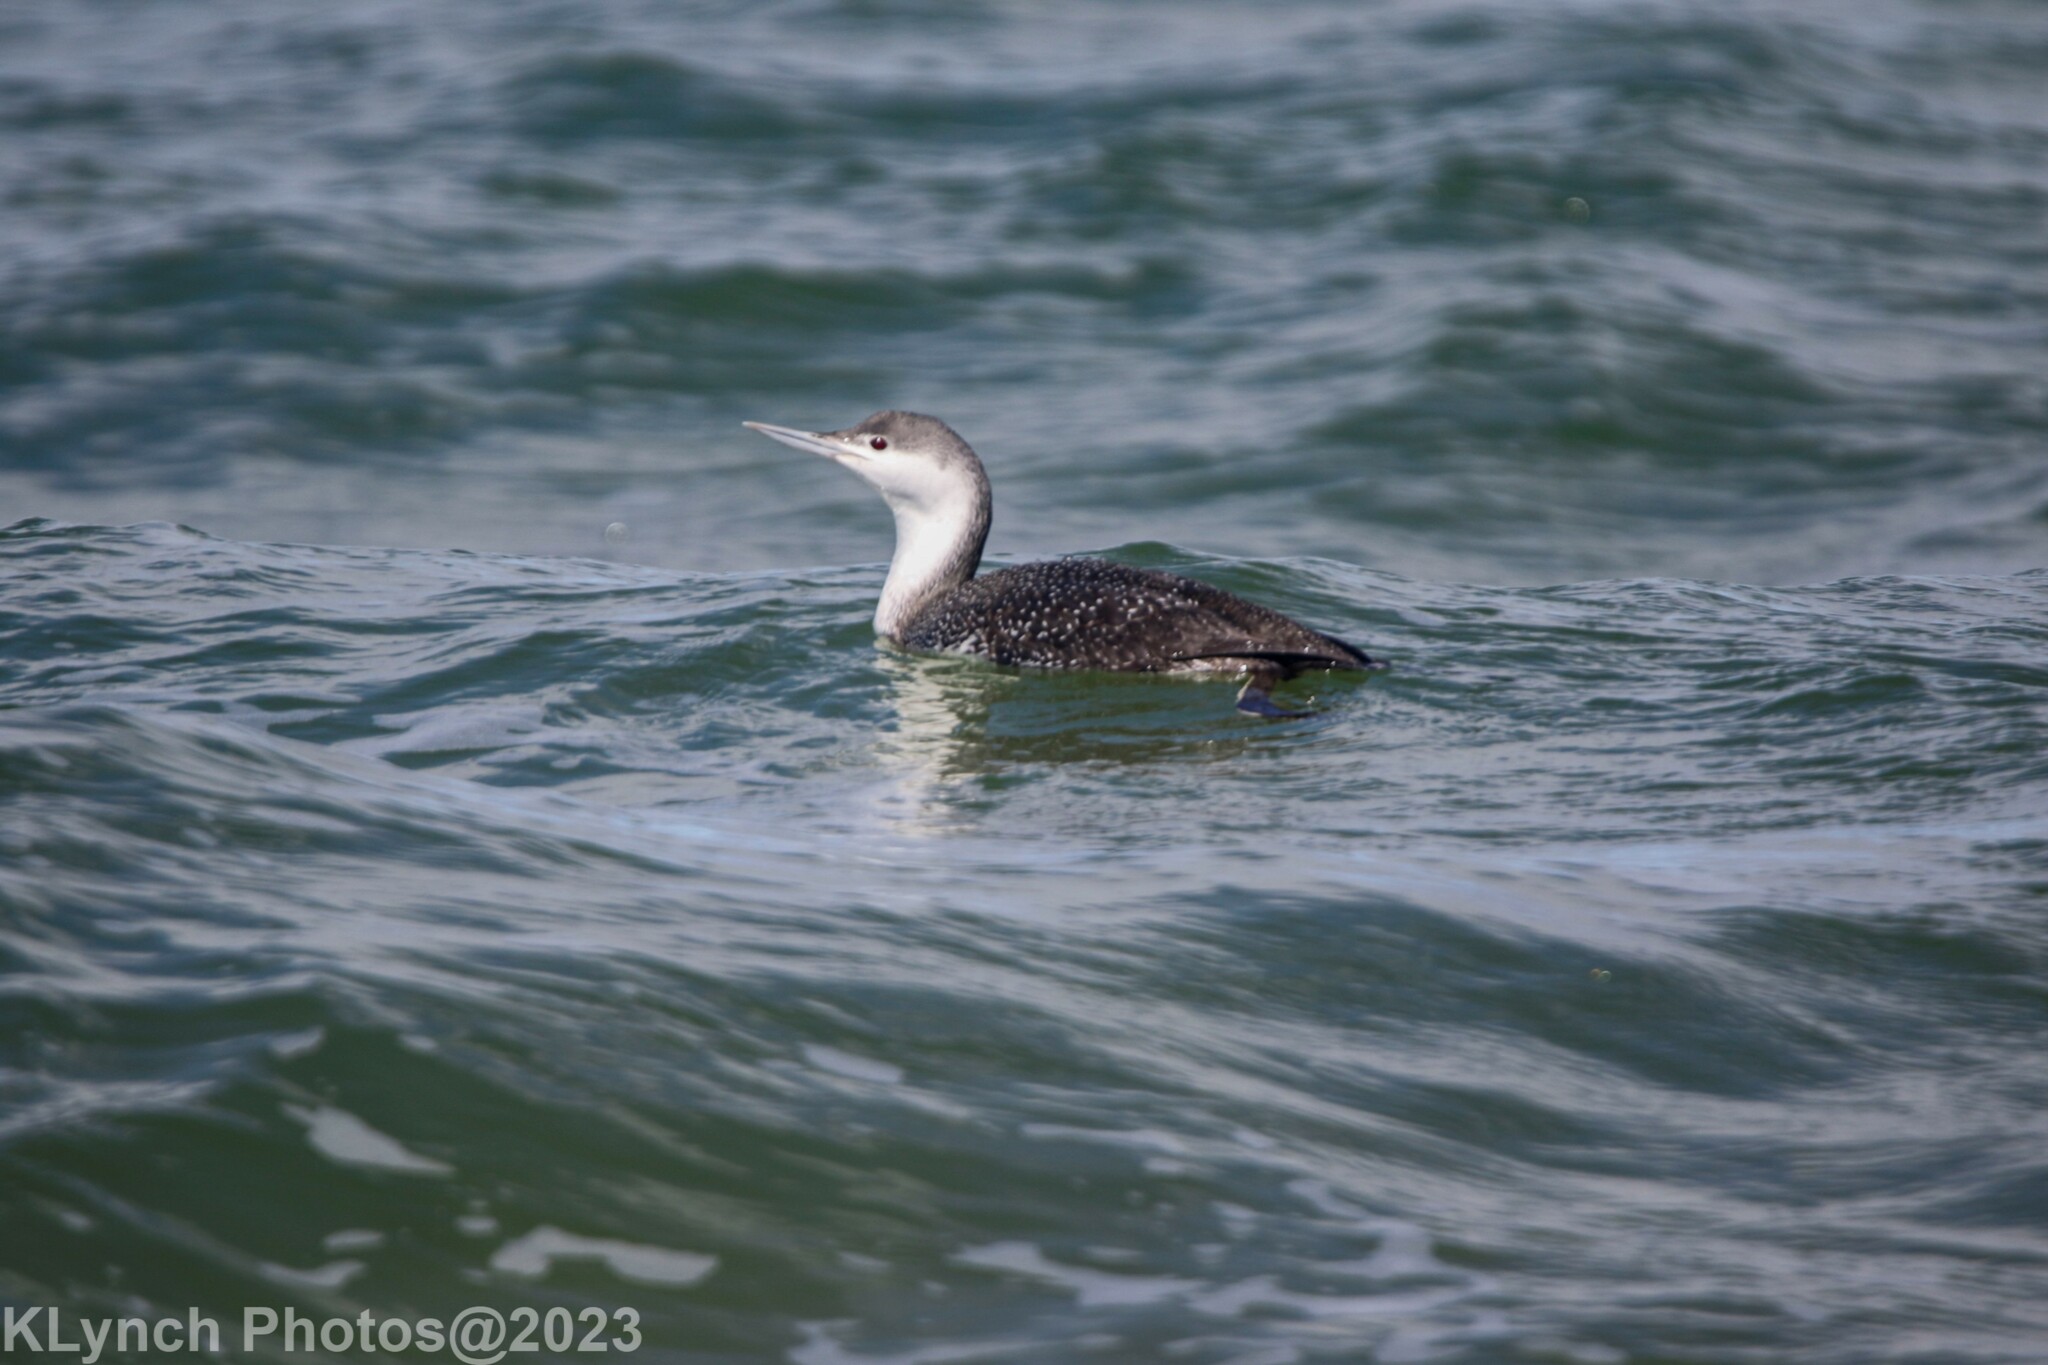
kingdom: Animalia
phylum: Chordata
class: Aves
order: Gaviiformes
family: Gaviidae
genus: Gavia
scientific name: Gavia stellata
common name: Red-throated loon
